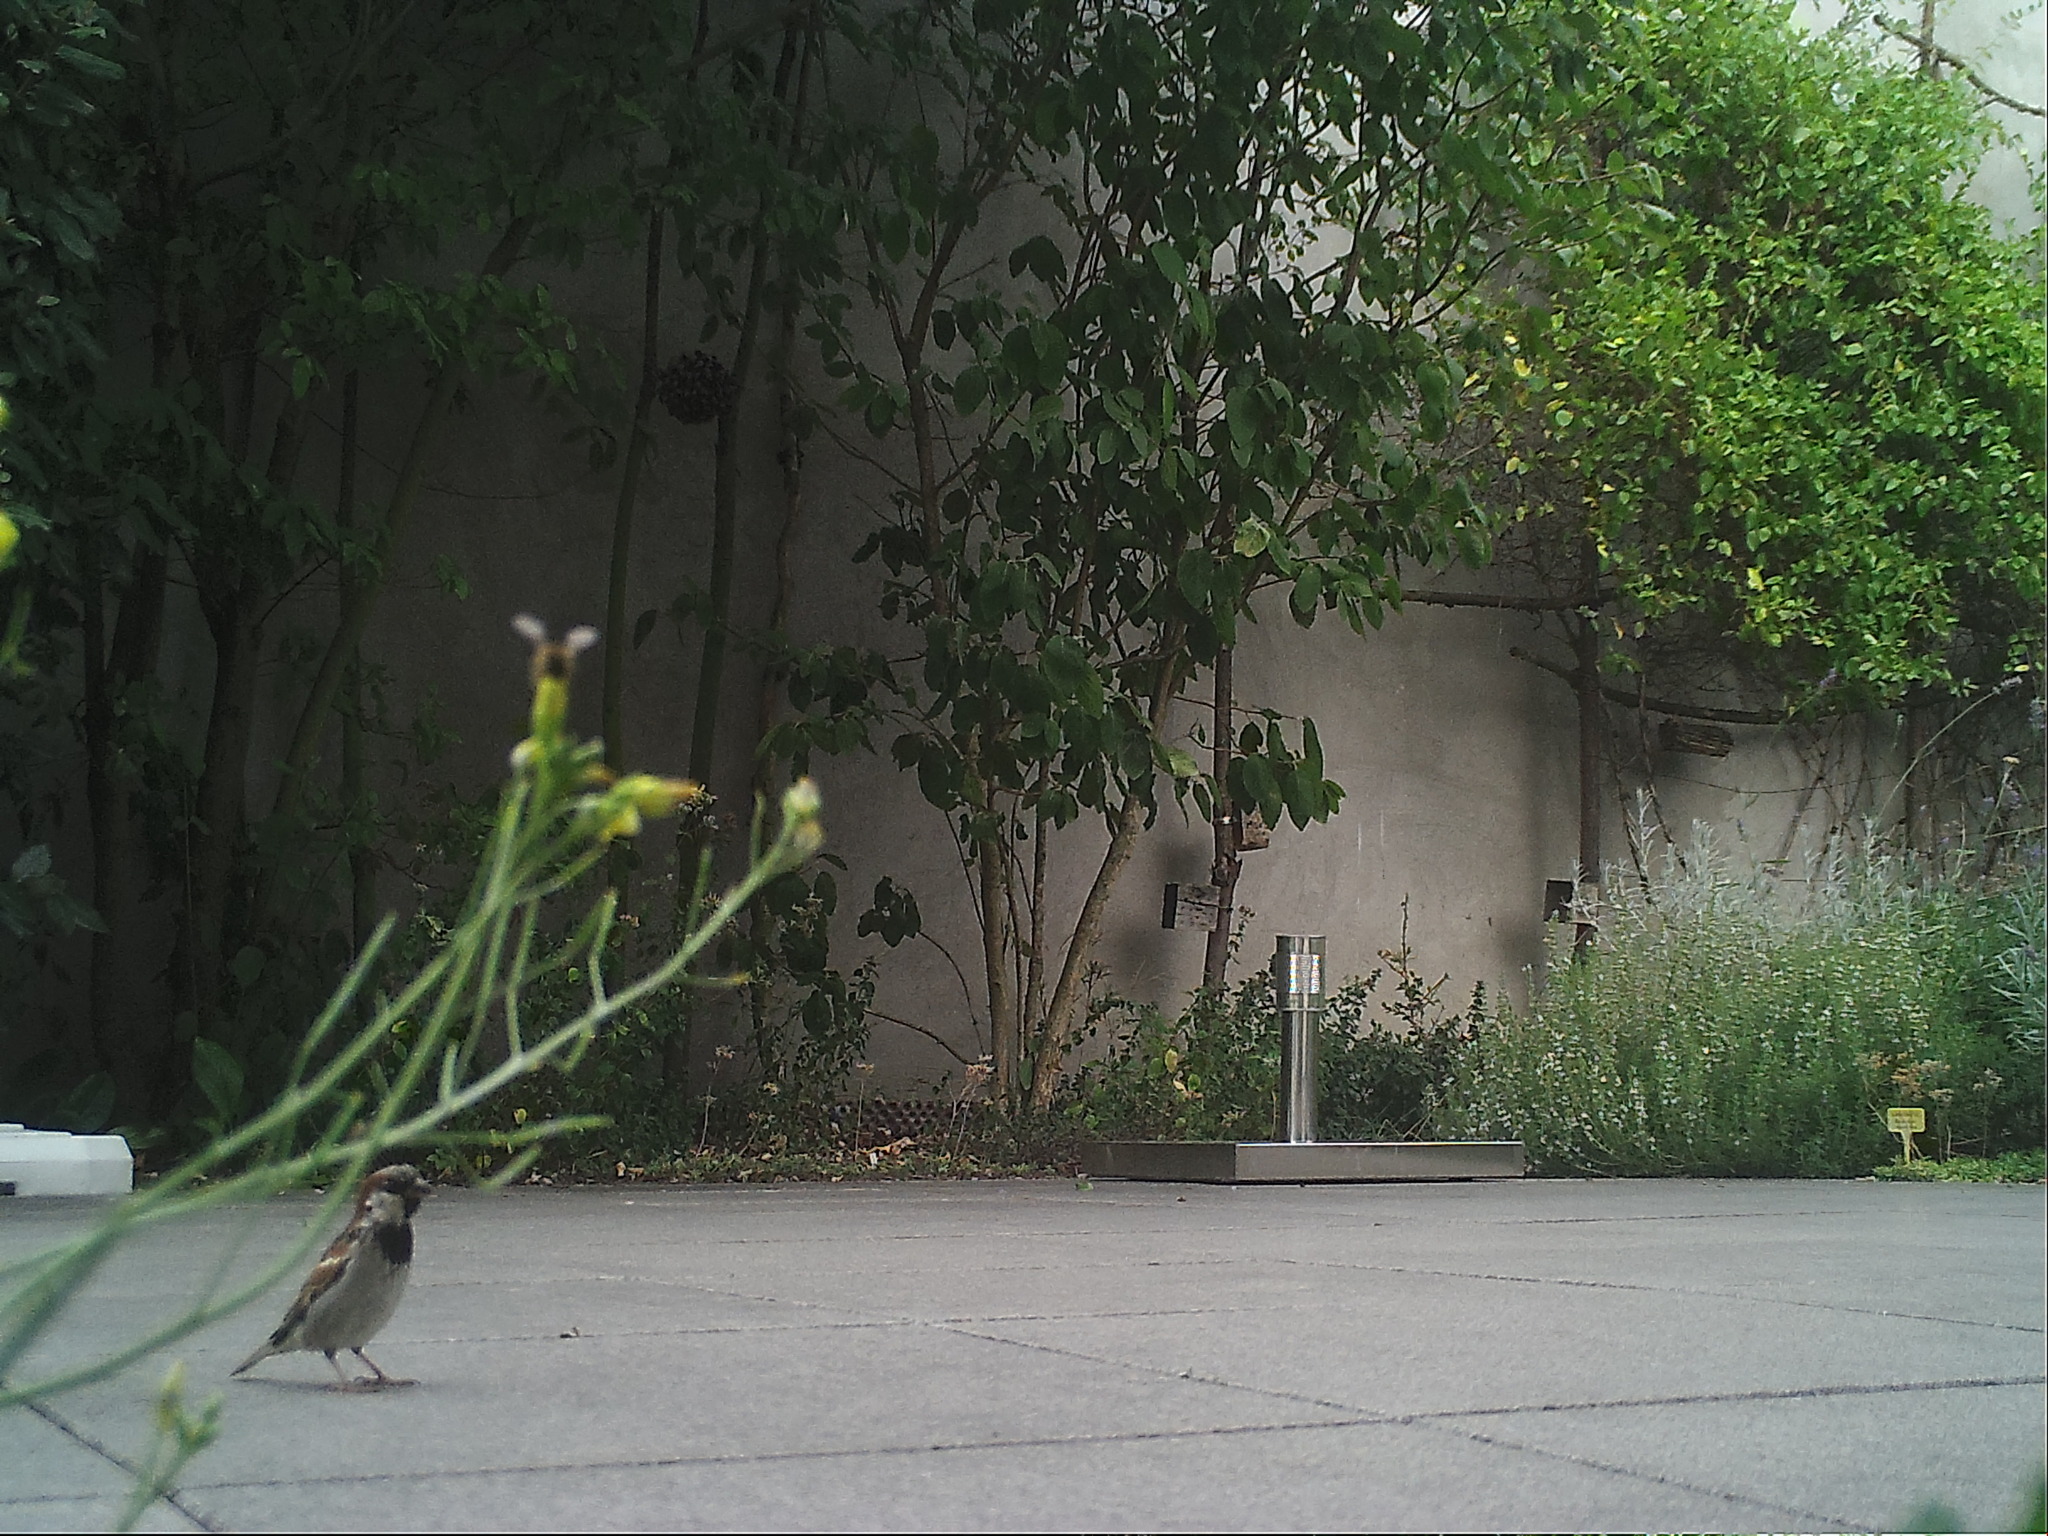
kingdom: Animalia
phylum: Chordata
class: Aves
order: Passeriformes
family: Passeridae
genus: Passer
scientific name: Passer domesticus
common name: House sparrow
